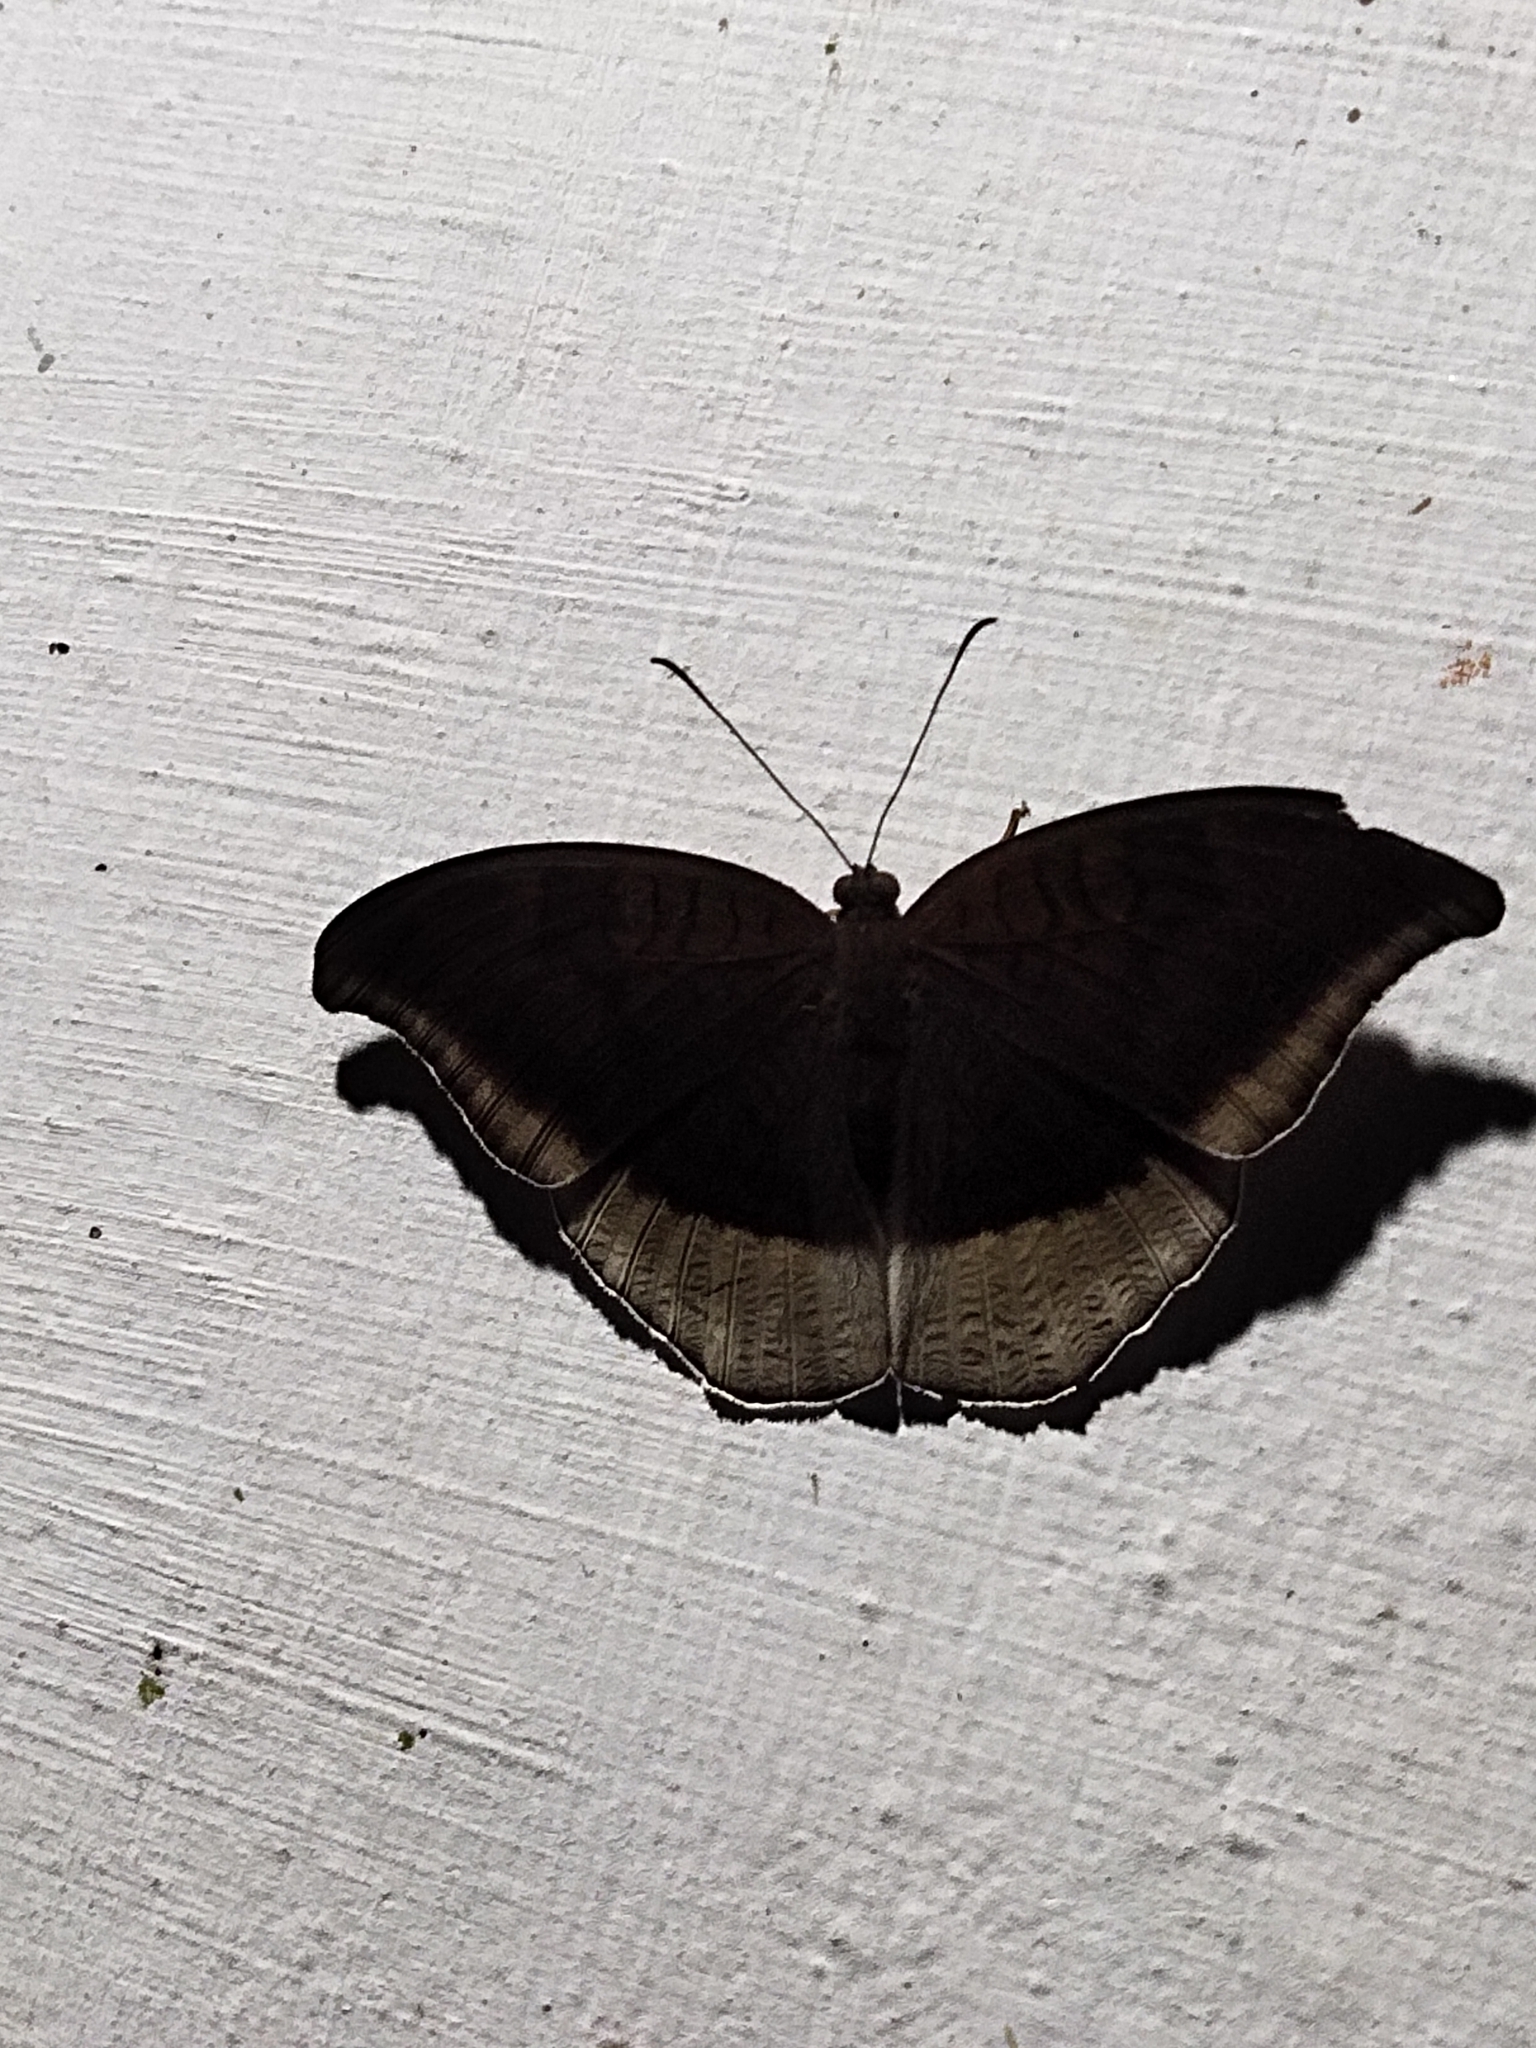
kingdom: Animalia
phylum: Arthropoda
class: Insecta
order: Lepidoptera
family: Nymphalidae
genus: Tanaecia
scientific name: Tanaecia lepidea
